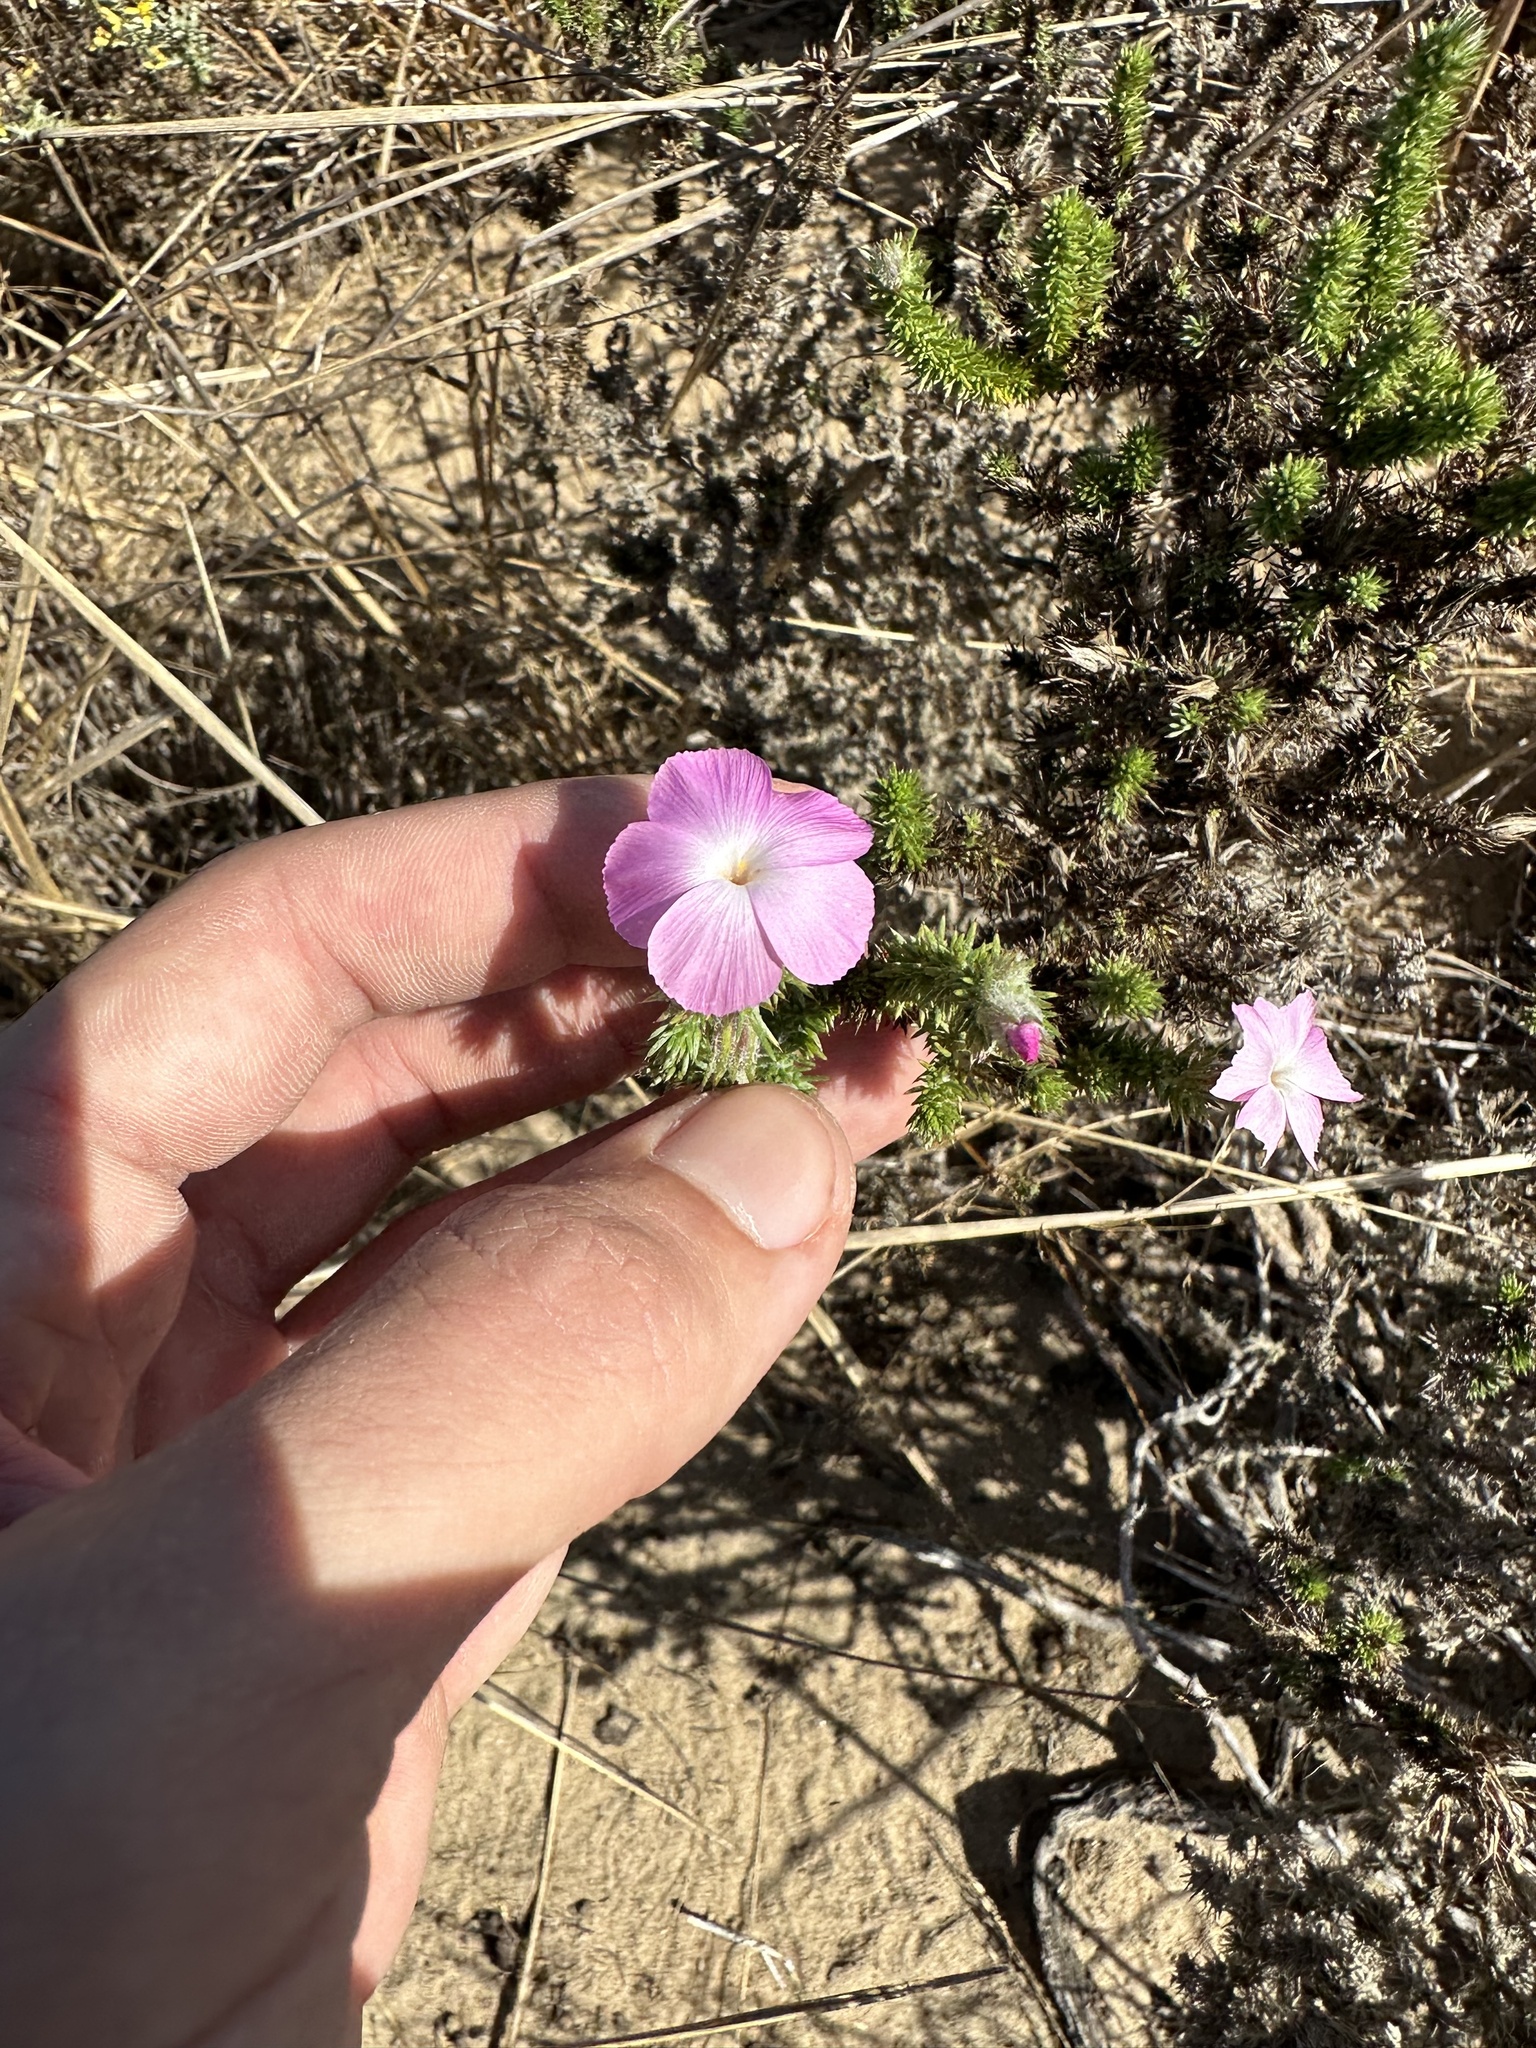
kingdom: Plantae
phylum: Tracheophyta
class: Magnoliopsida
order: Ericales
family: Polemoniaceae
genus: Linanthus
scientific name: Linanthus californicus
